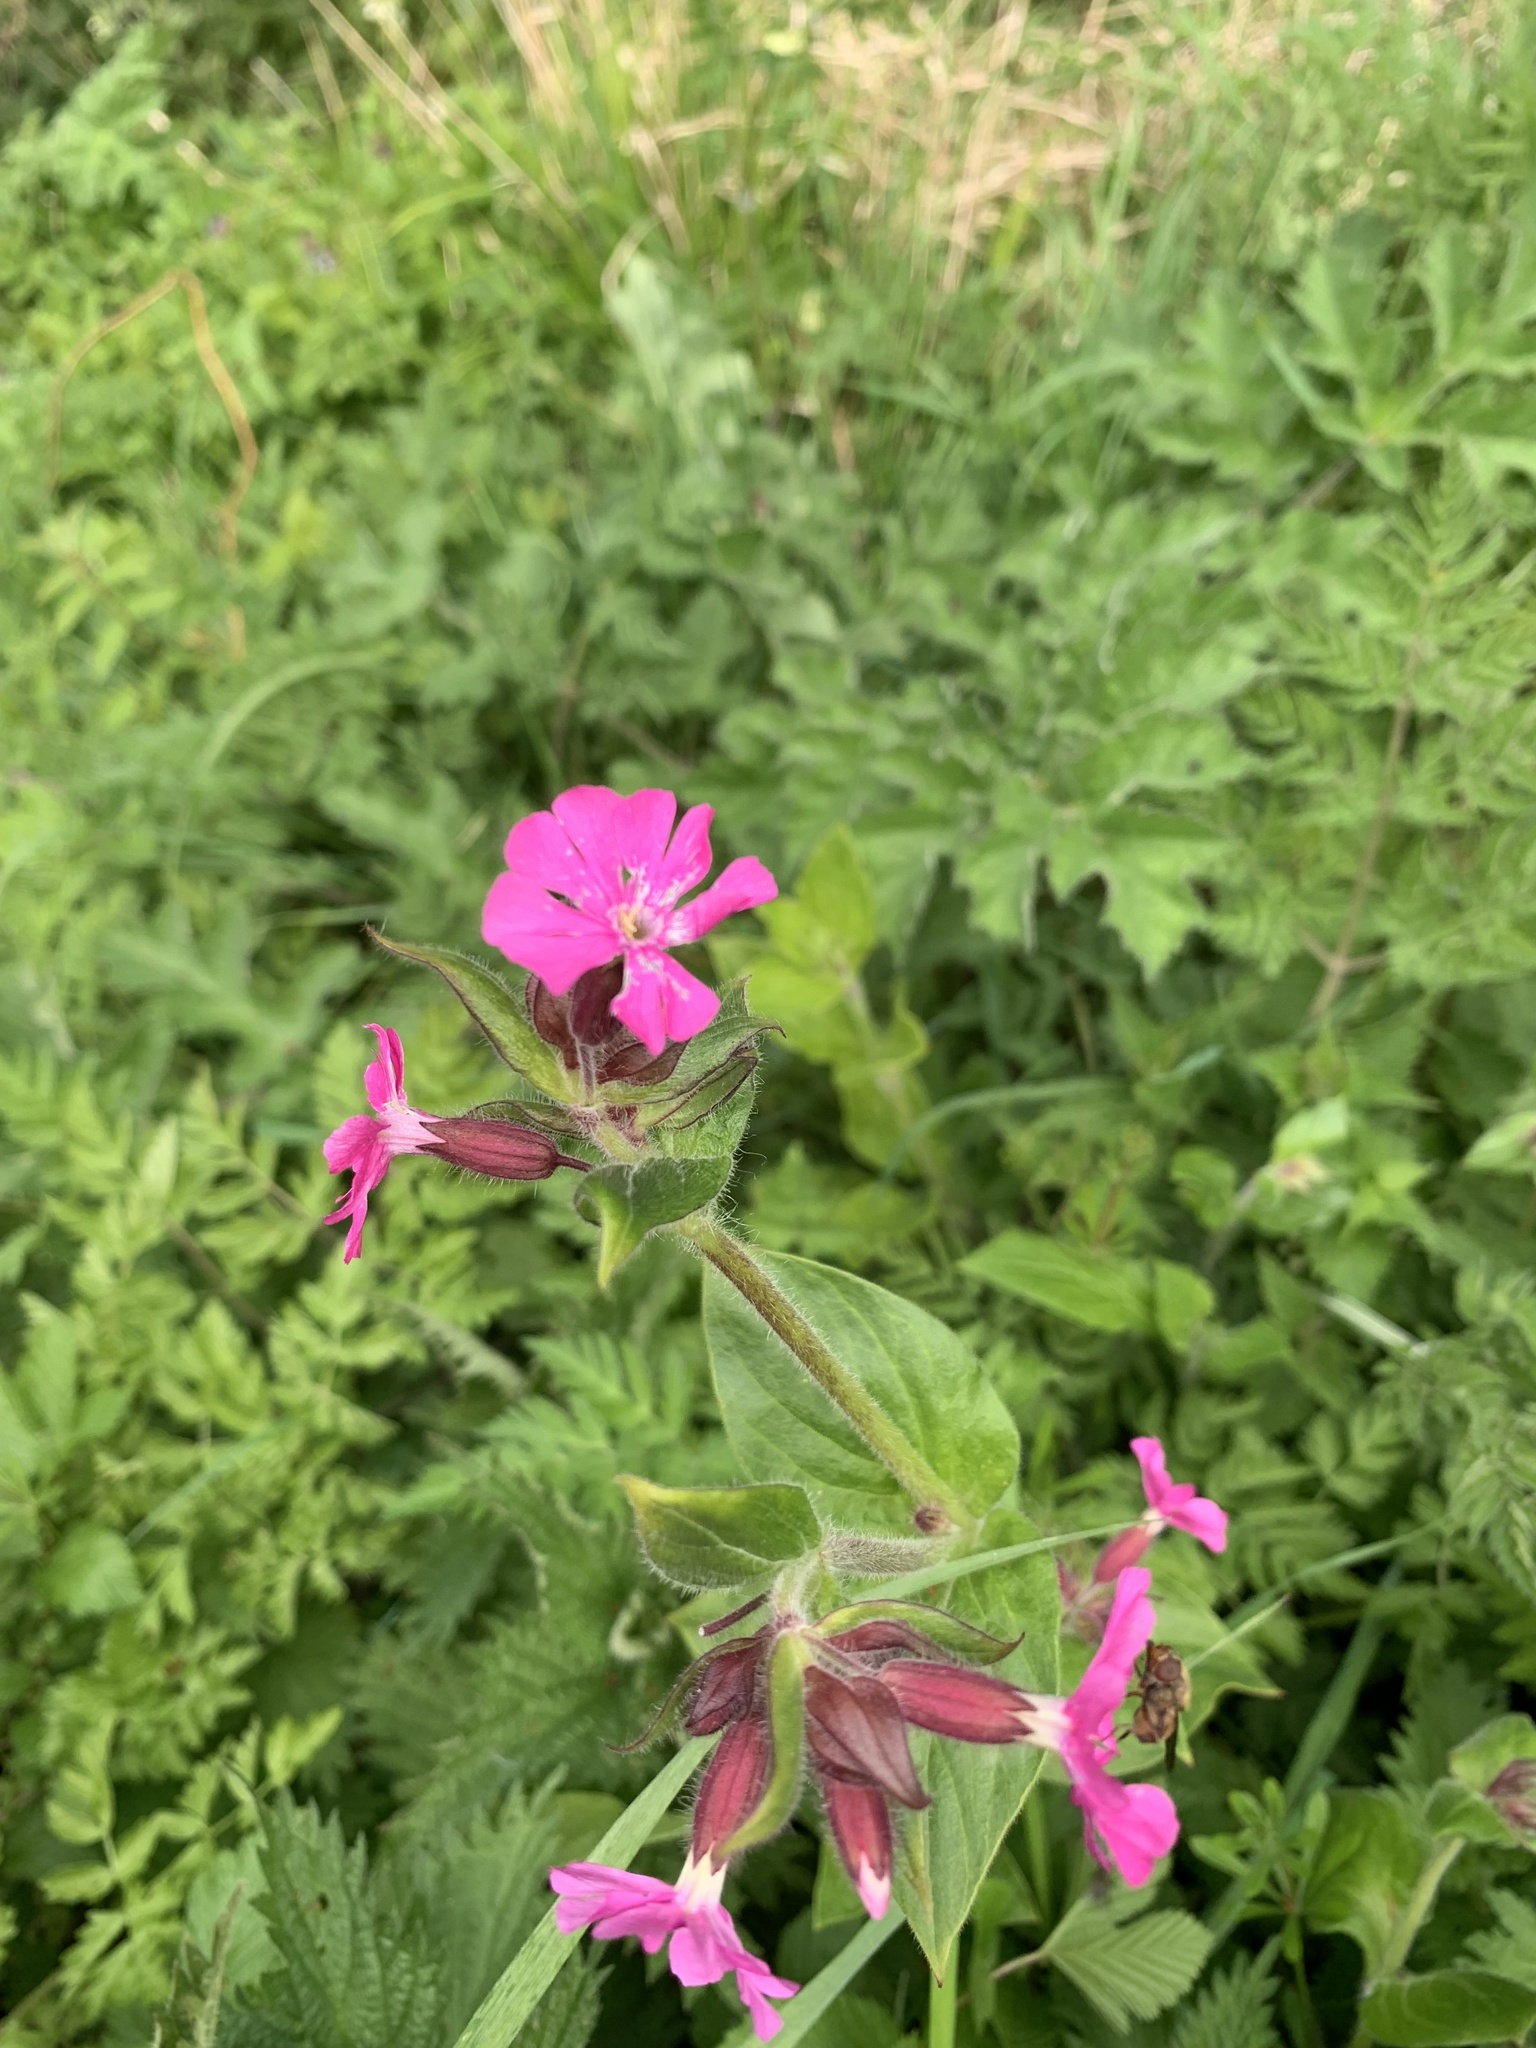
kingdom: Plantae
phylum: Tracheophyta
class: Magnoliopsida
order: Caryophyllales
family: Caryophyllaceae
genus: Silene
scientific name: Silene dioica
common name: Red campion
